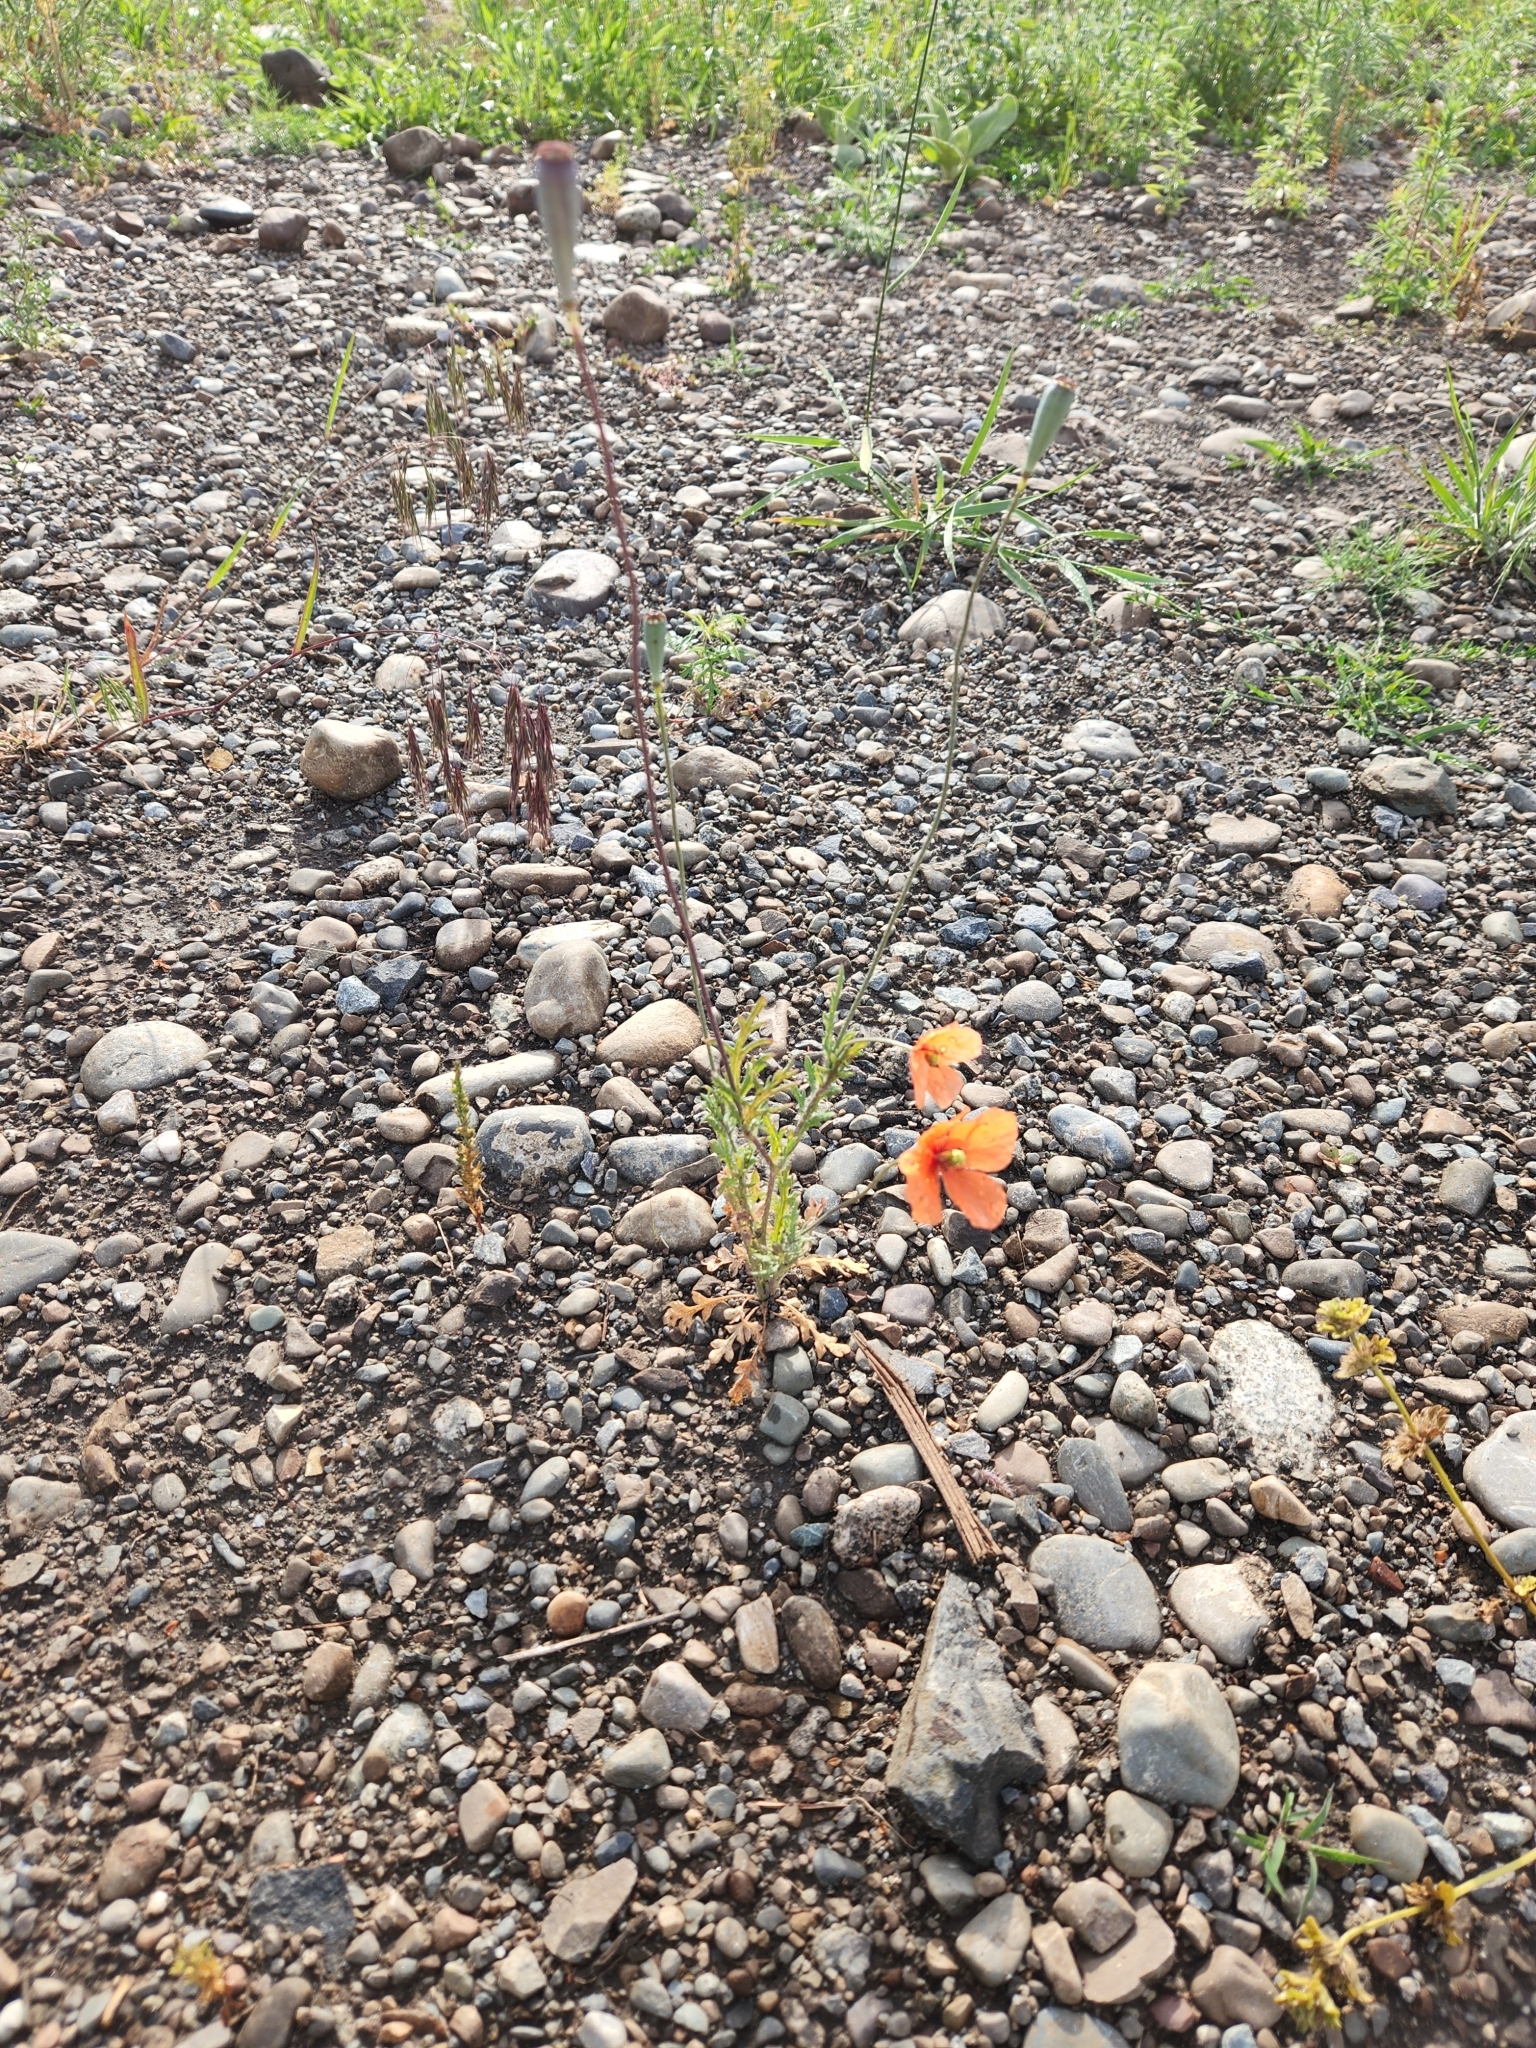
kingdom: Plantae
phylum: Tracheophyta
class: Magnoliopsida
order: Ranunculales
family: Papaveraceae
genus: Papaver
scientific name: Papaver dubium
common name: Long-headed poppy
